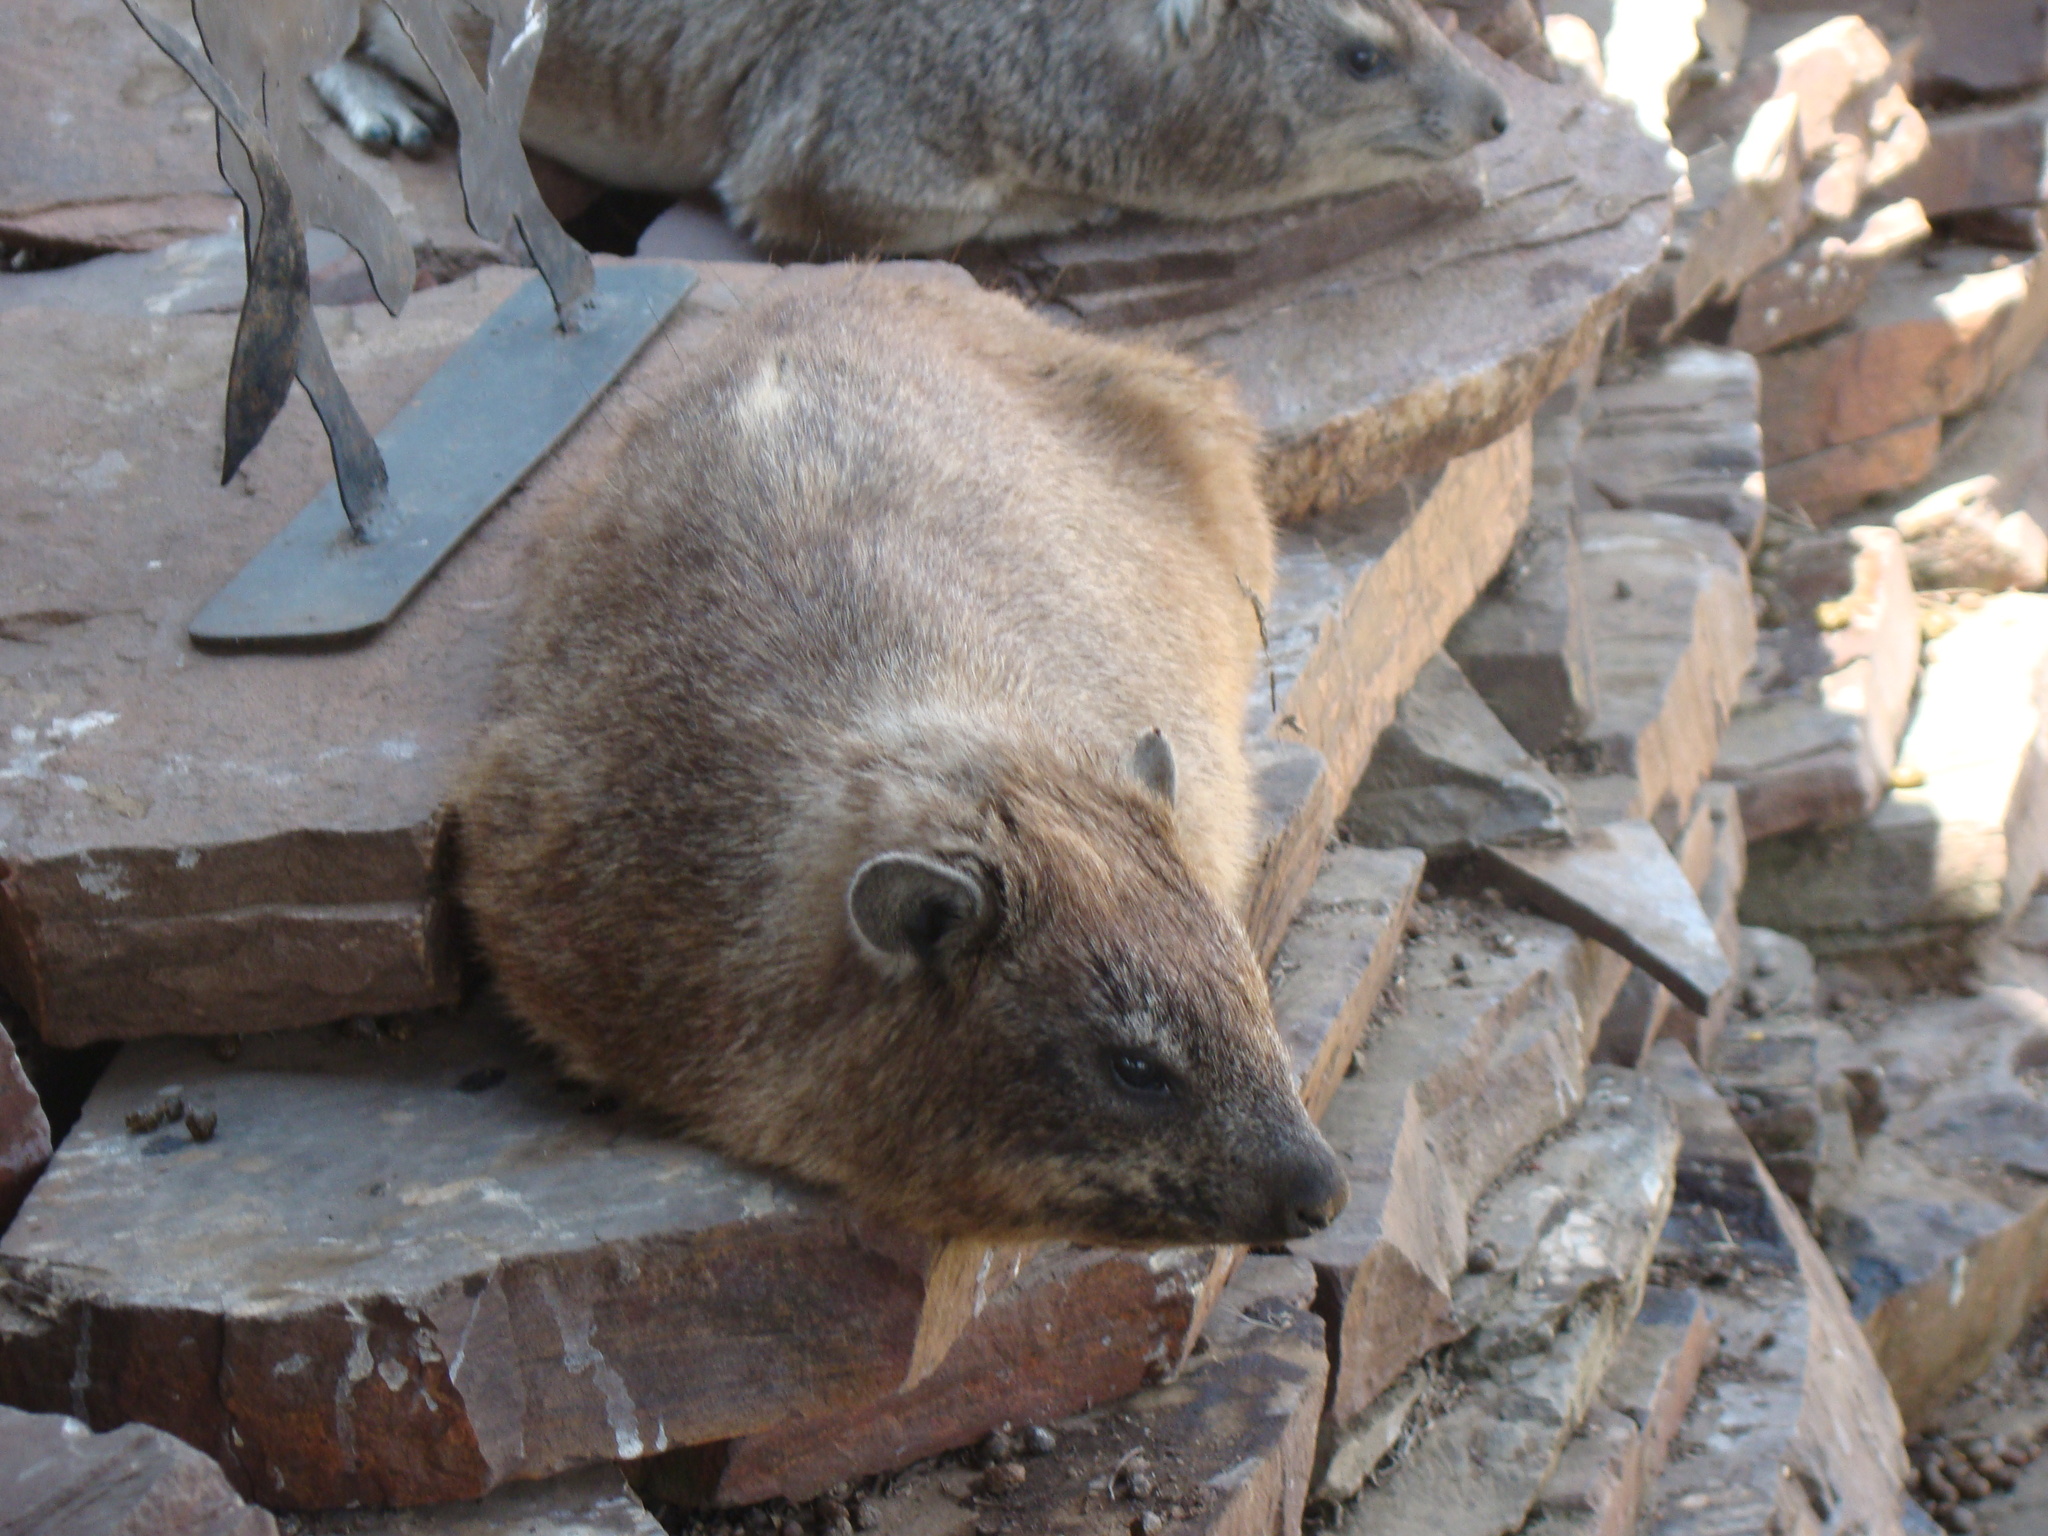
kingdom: Animalia
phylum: Chordata
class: Mammalia
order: Hyracoidea
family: Procaviidae
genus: Heterohyrax
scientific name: Heterohyrax brucei
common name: Bush hyrax
